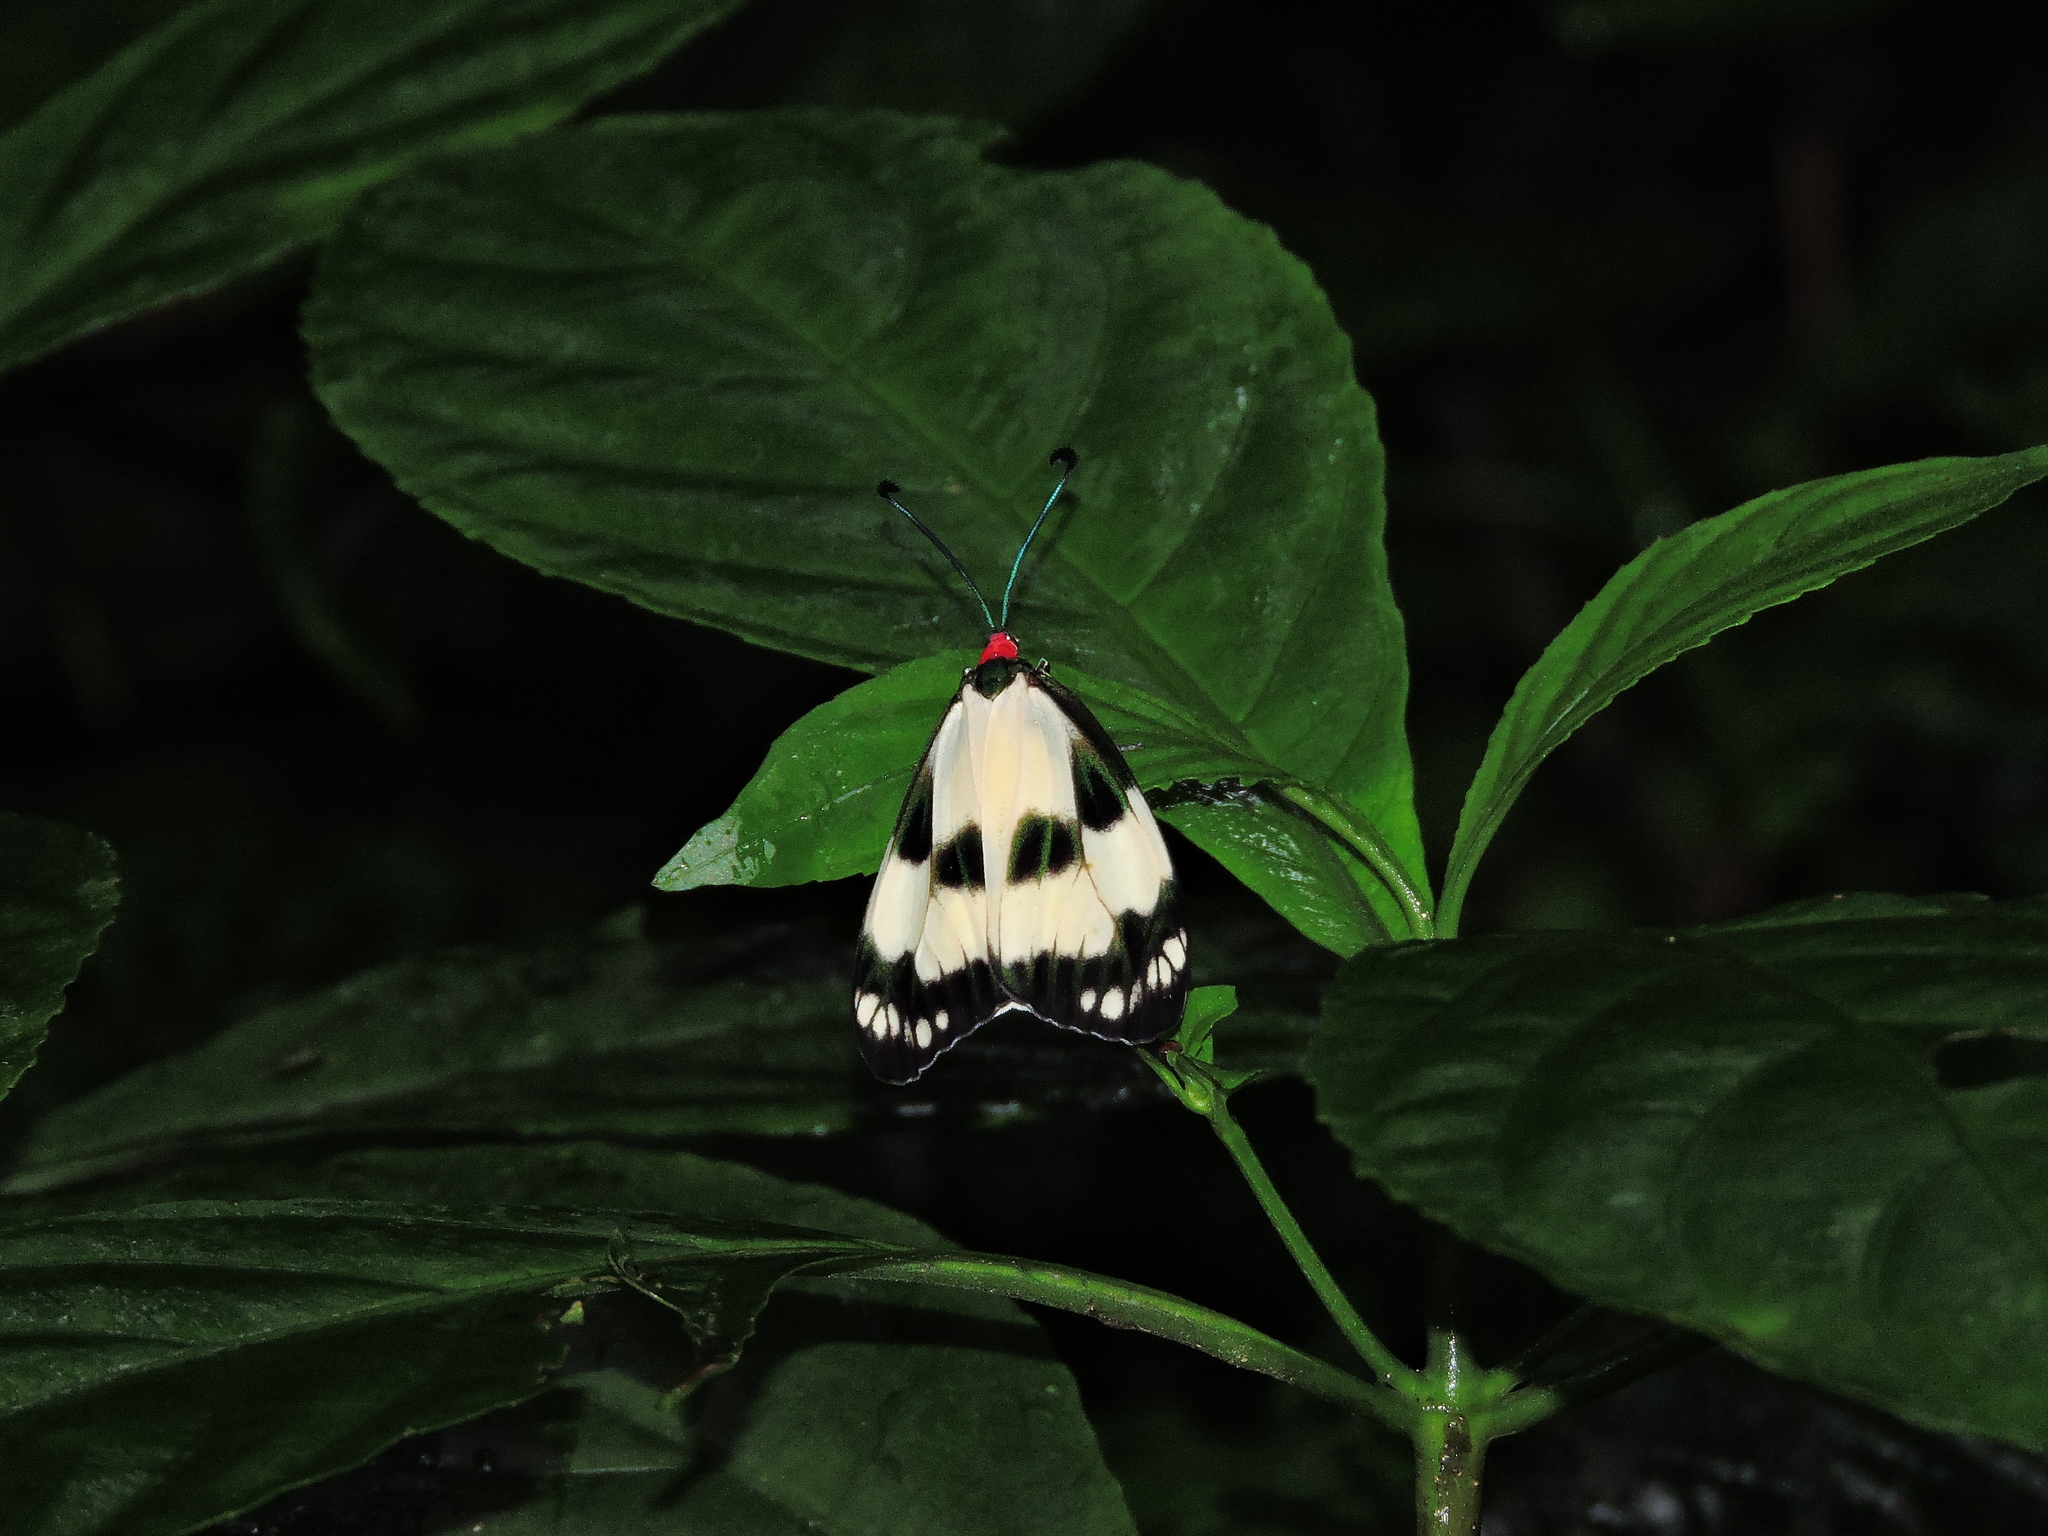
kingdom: Animalia
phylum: Arthropoda
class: Insecta
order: Lepidoptera
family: Zygaenidae
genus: Chalcosia
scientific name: Chalcosia suffusa
